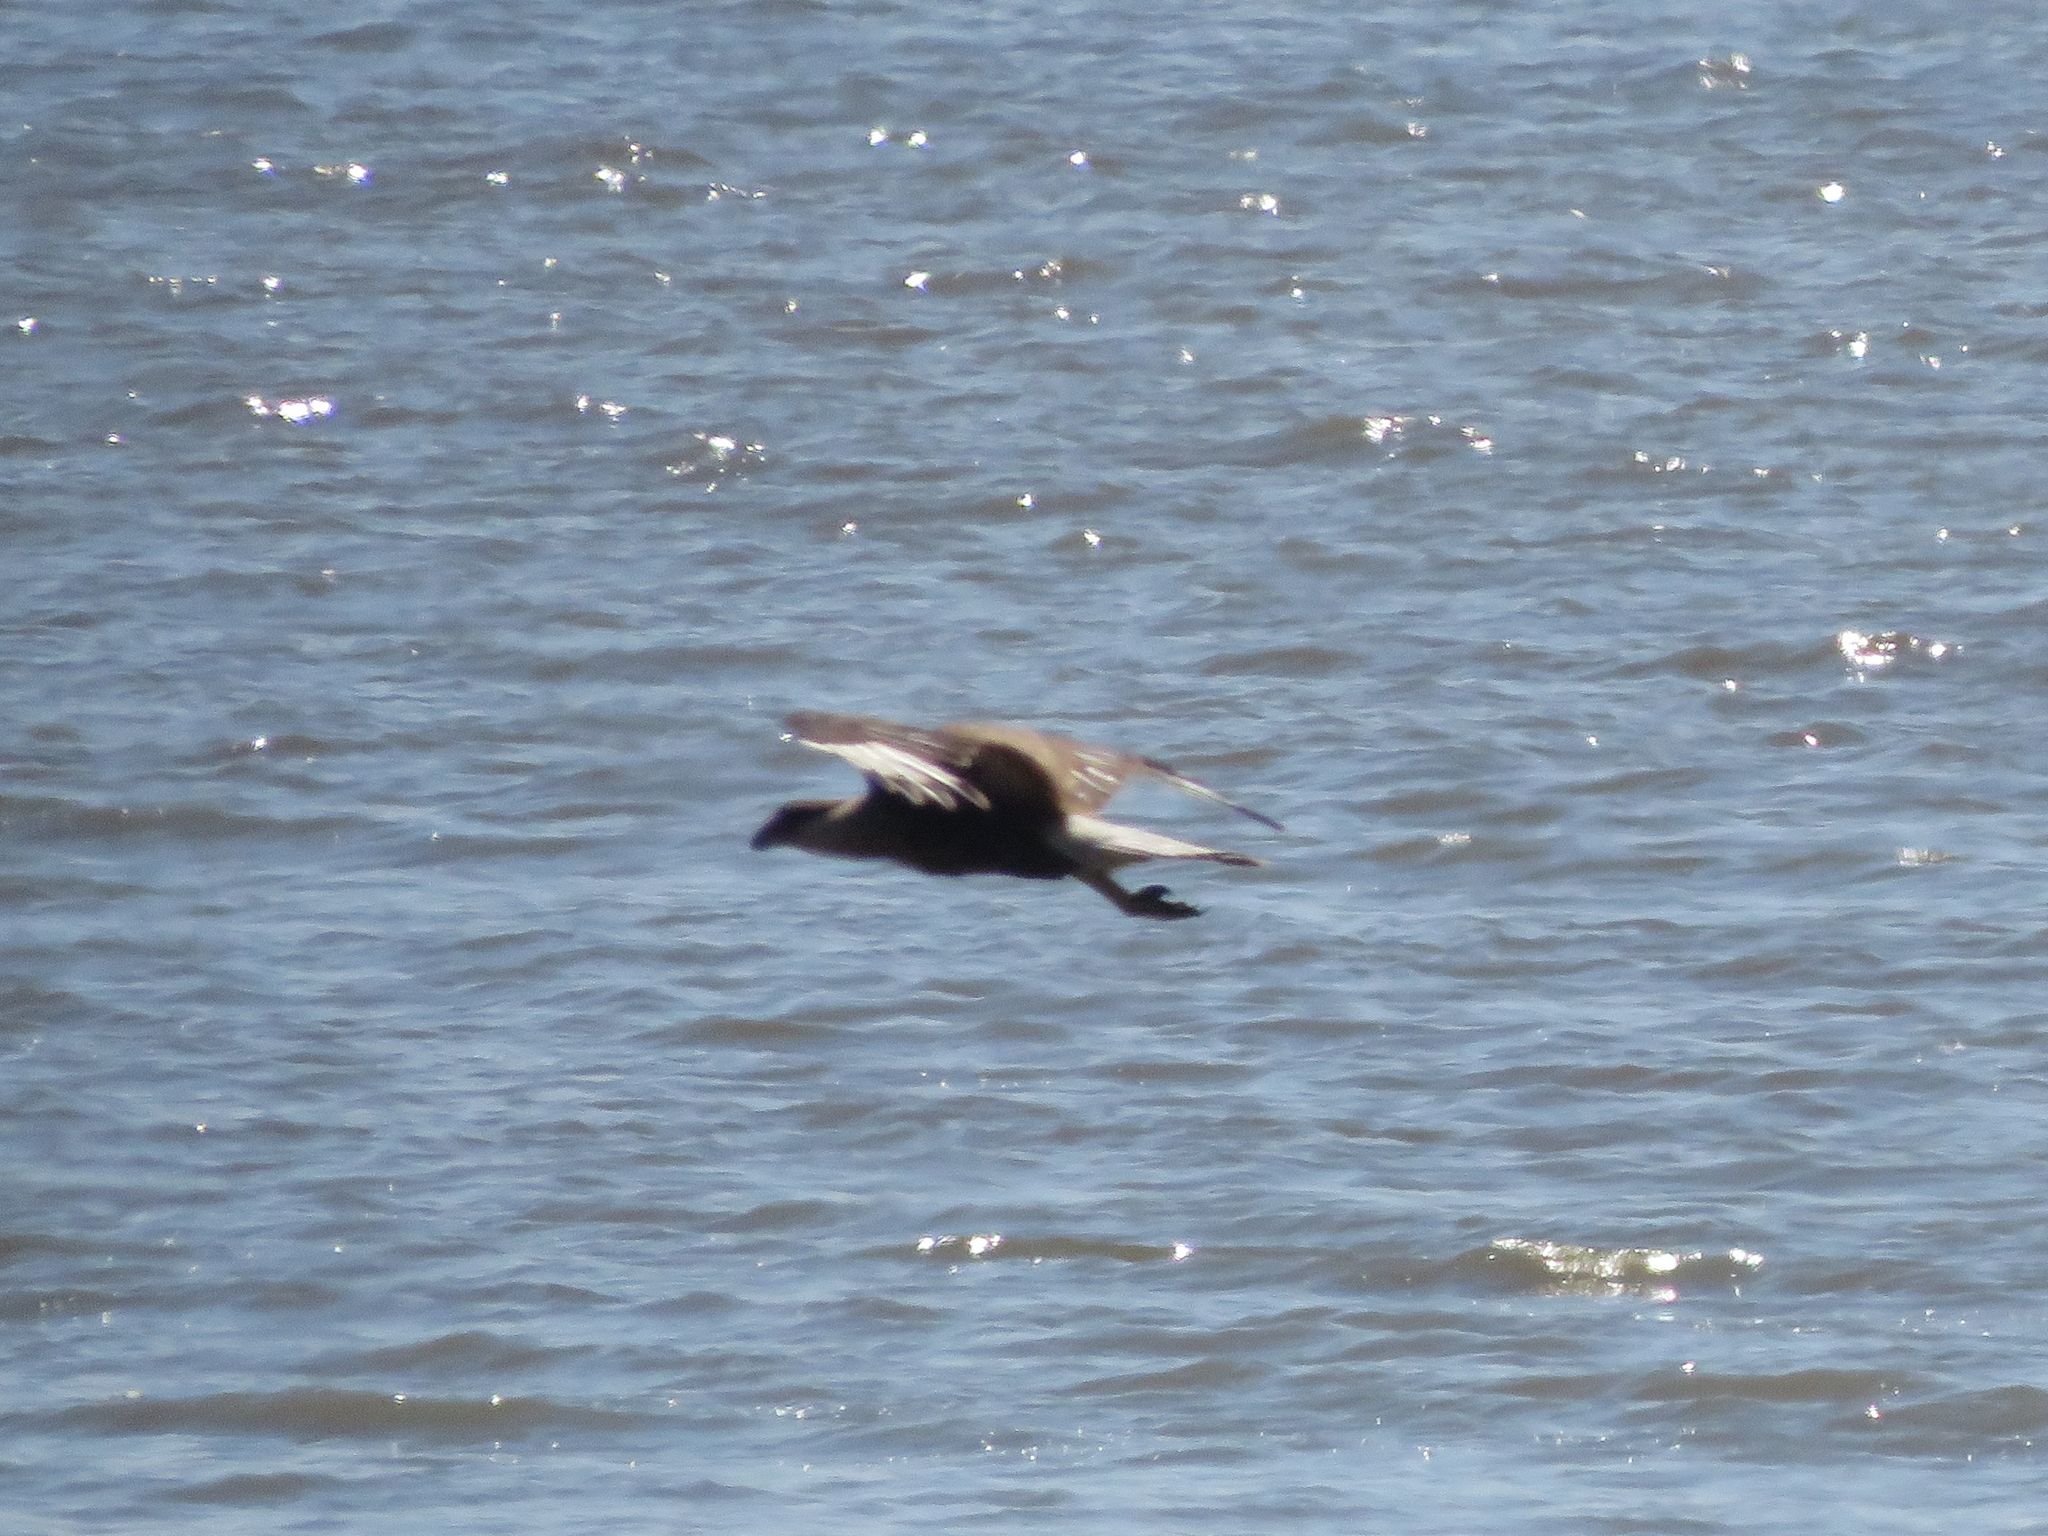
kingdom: Animalia
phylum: Chordata
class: Aves
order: Falconiformes
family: Falconidae
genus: Caracara
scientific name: Caracara plancus
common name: Southern caracara
